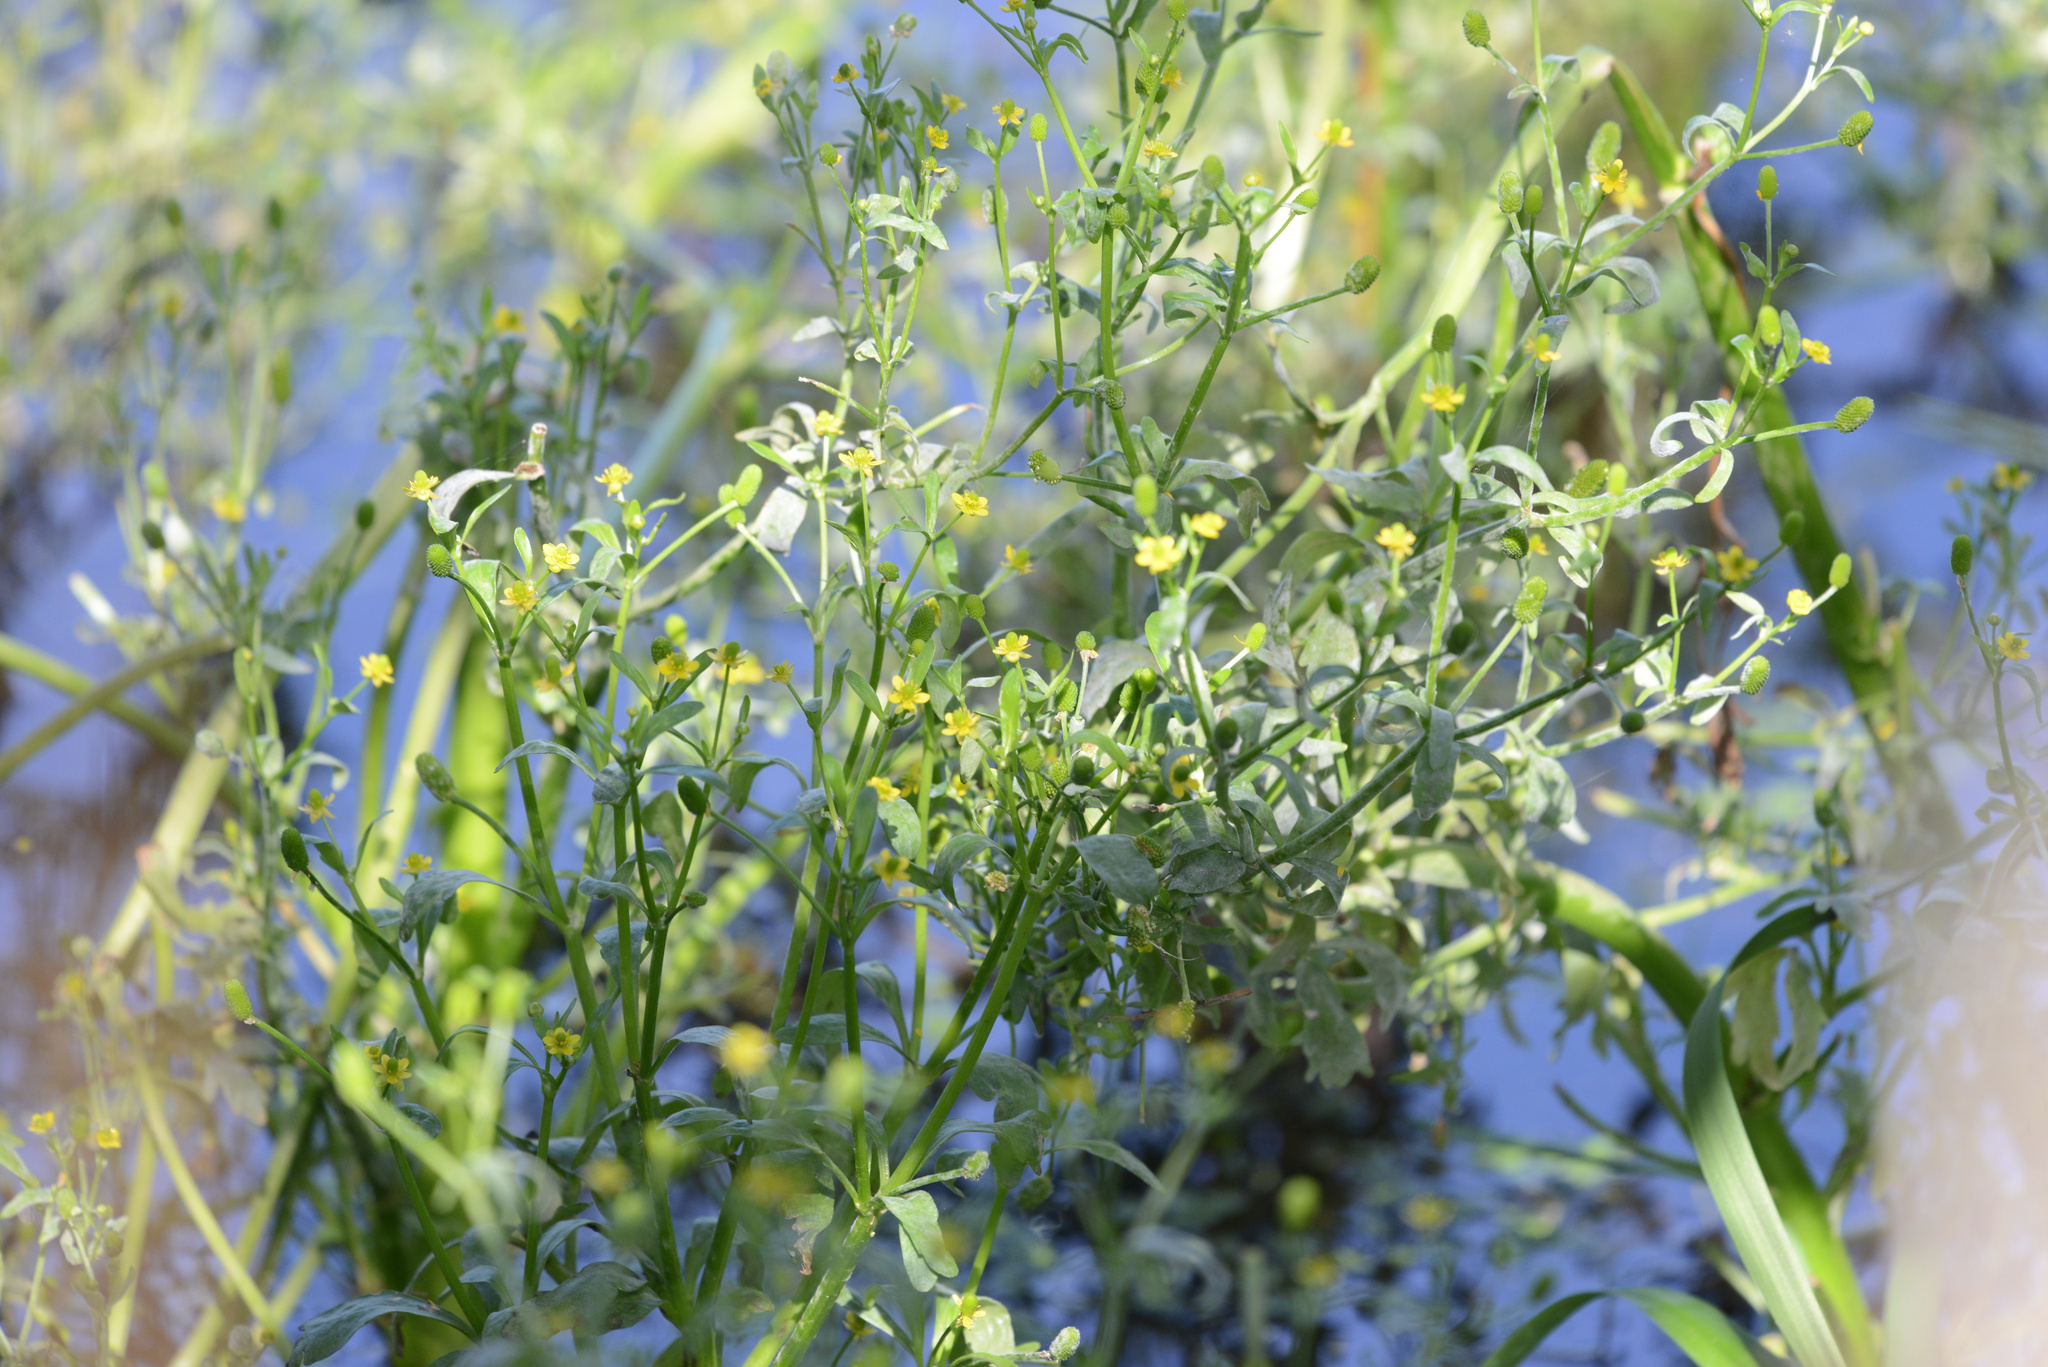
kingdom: Plantae
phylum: Tracheophyta
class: Magnoliopsida
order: Ranunculales
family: Ranunculaceae
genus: Ranunculus
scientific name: Ranunculus sceleratus
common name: Celery-leaved buttercup
